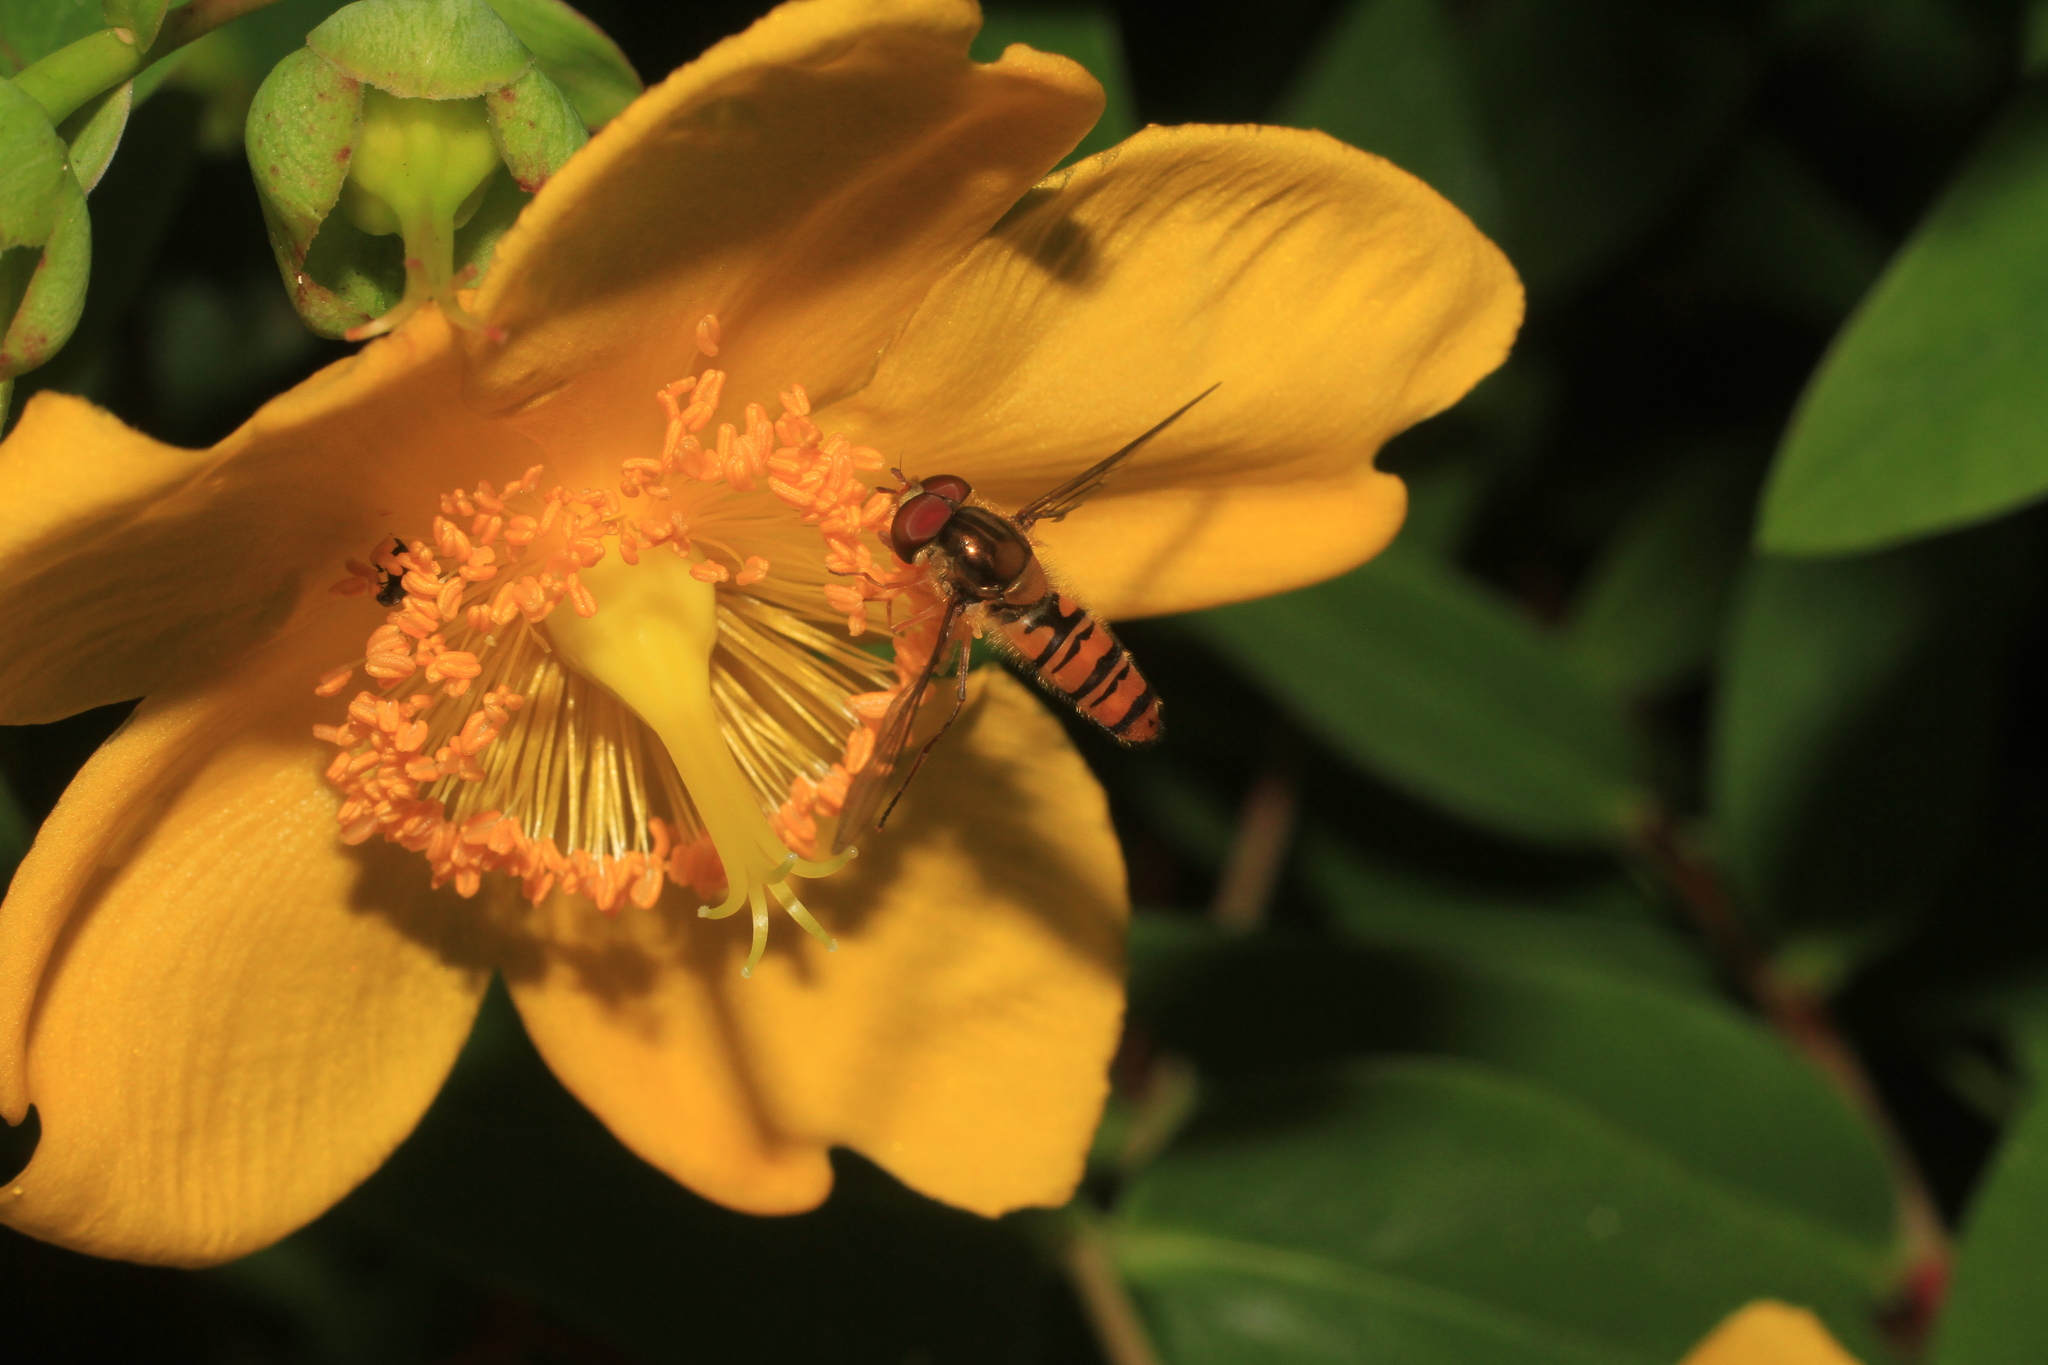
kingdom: Animalia
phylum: Arthropoda
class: Insecta
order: Diptera
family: Syrphidae
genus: Episyrphus
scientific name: Episyrphus balteatus
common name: Marmalade hoverfly
